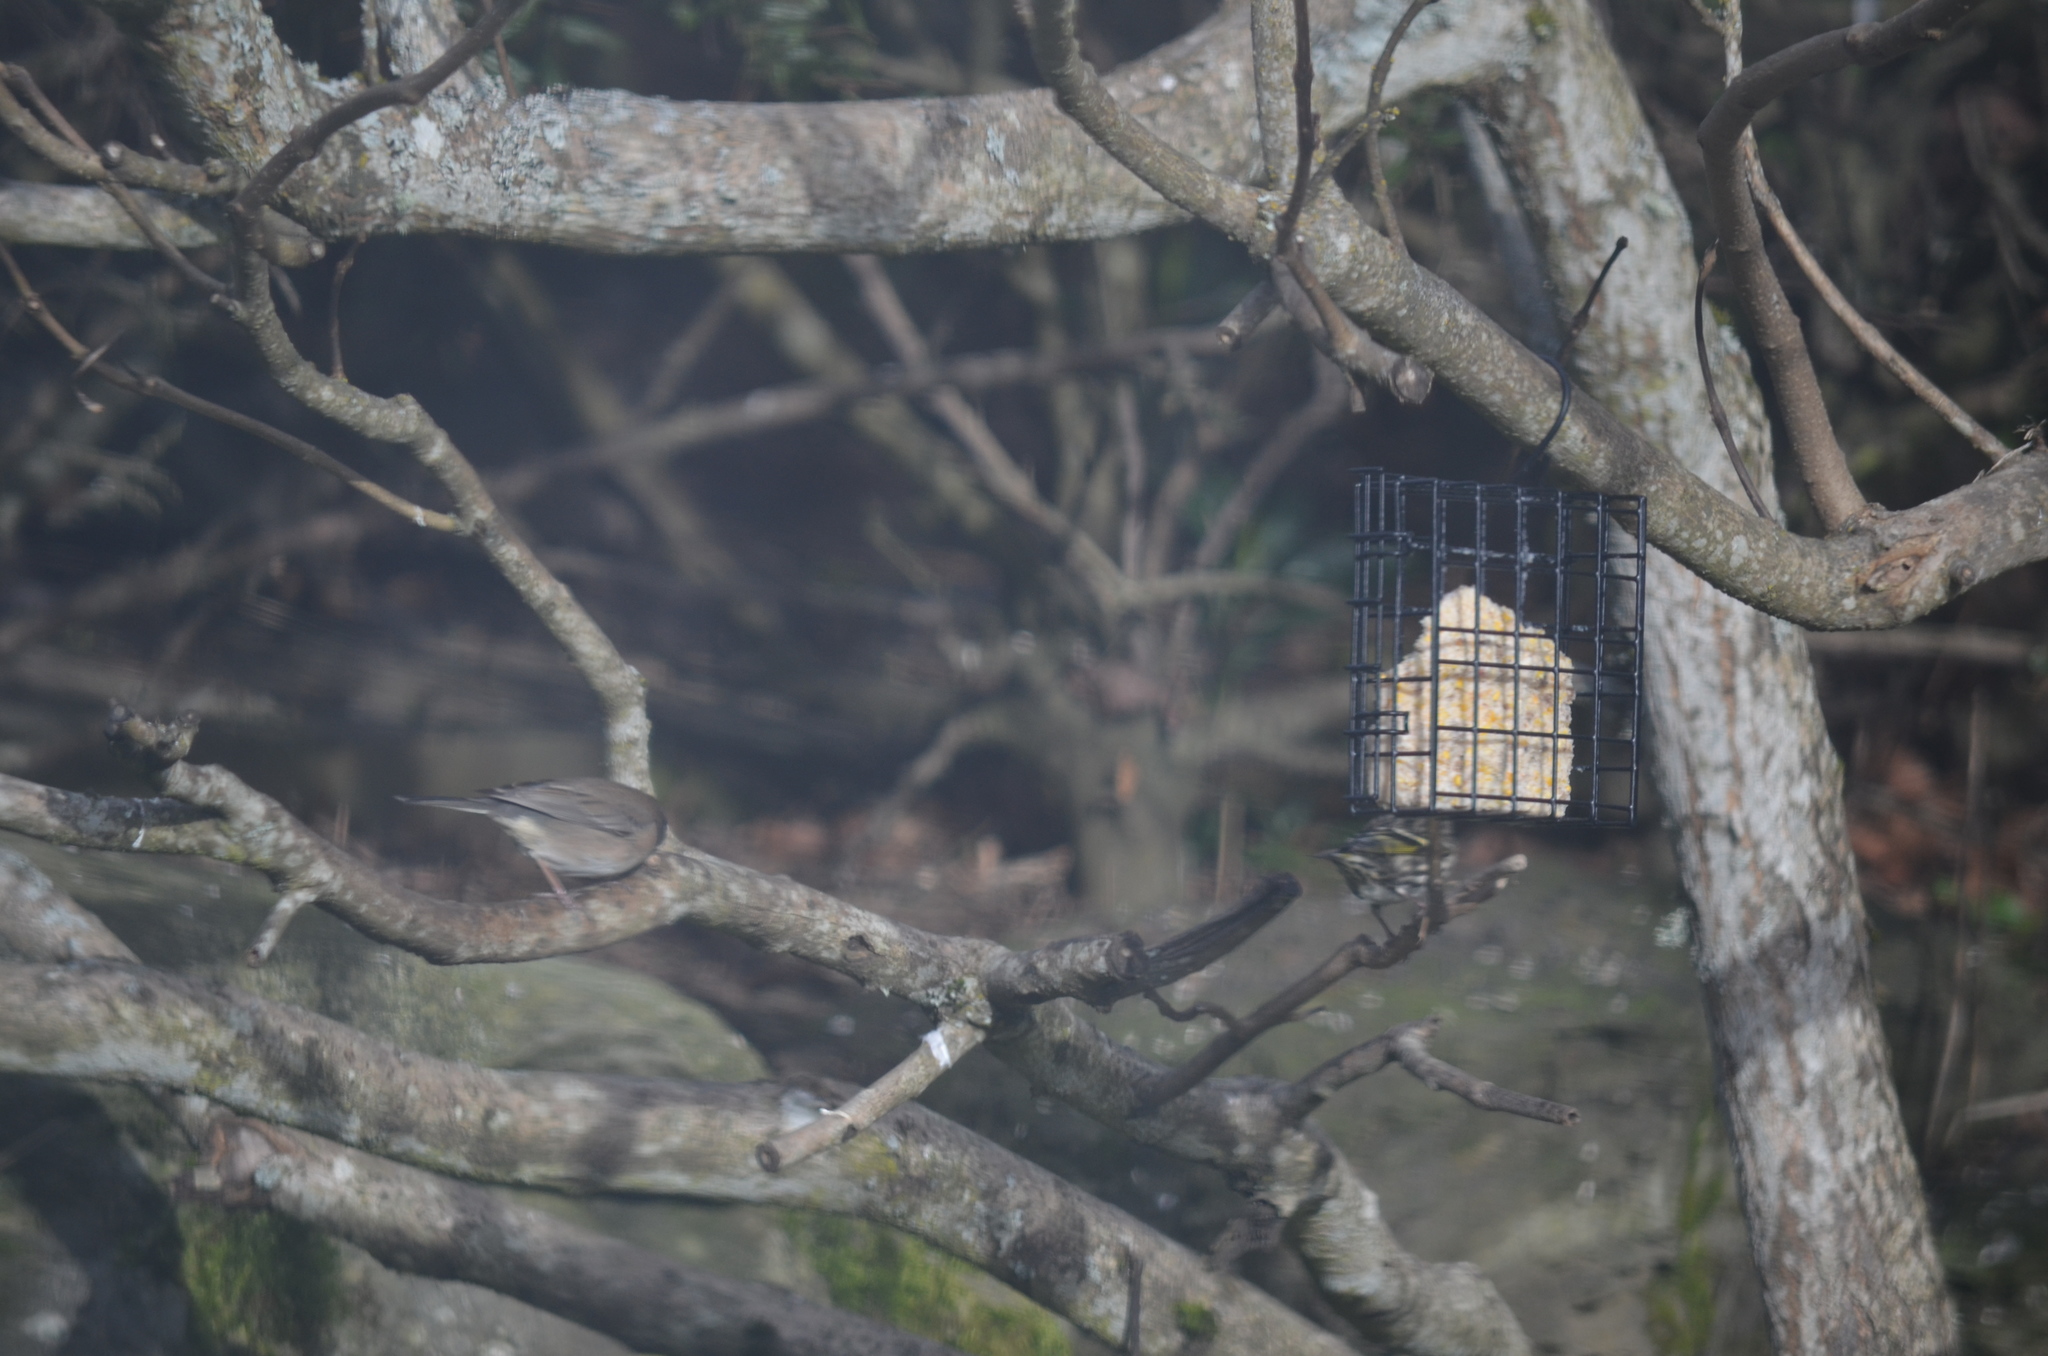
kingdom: Animalia
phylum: Chordata
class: Aves
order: Passeriformes
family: Passerellidae
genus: Junco
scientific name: Junco hyemalis
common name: Dark-eyed junco
